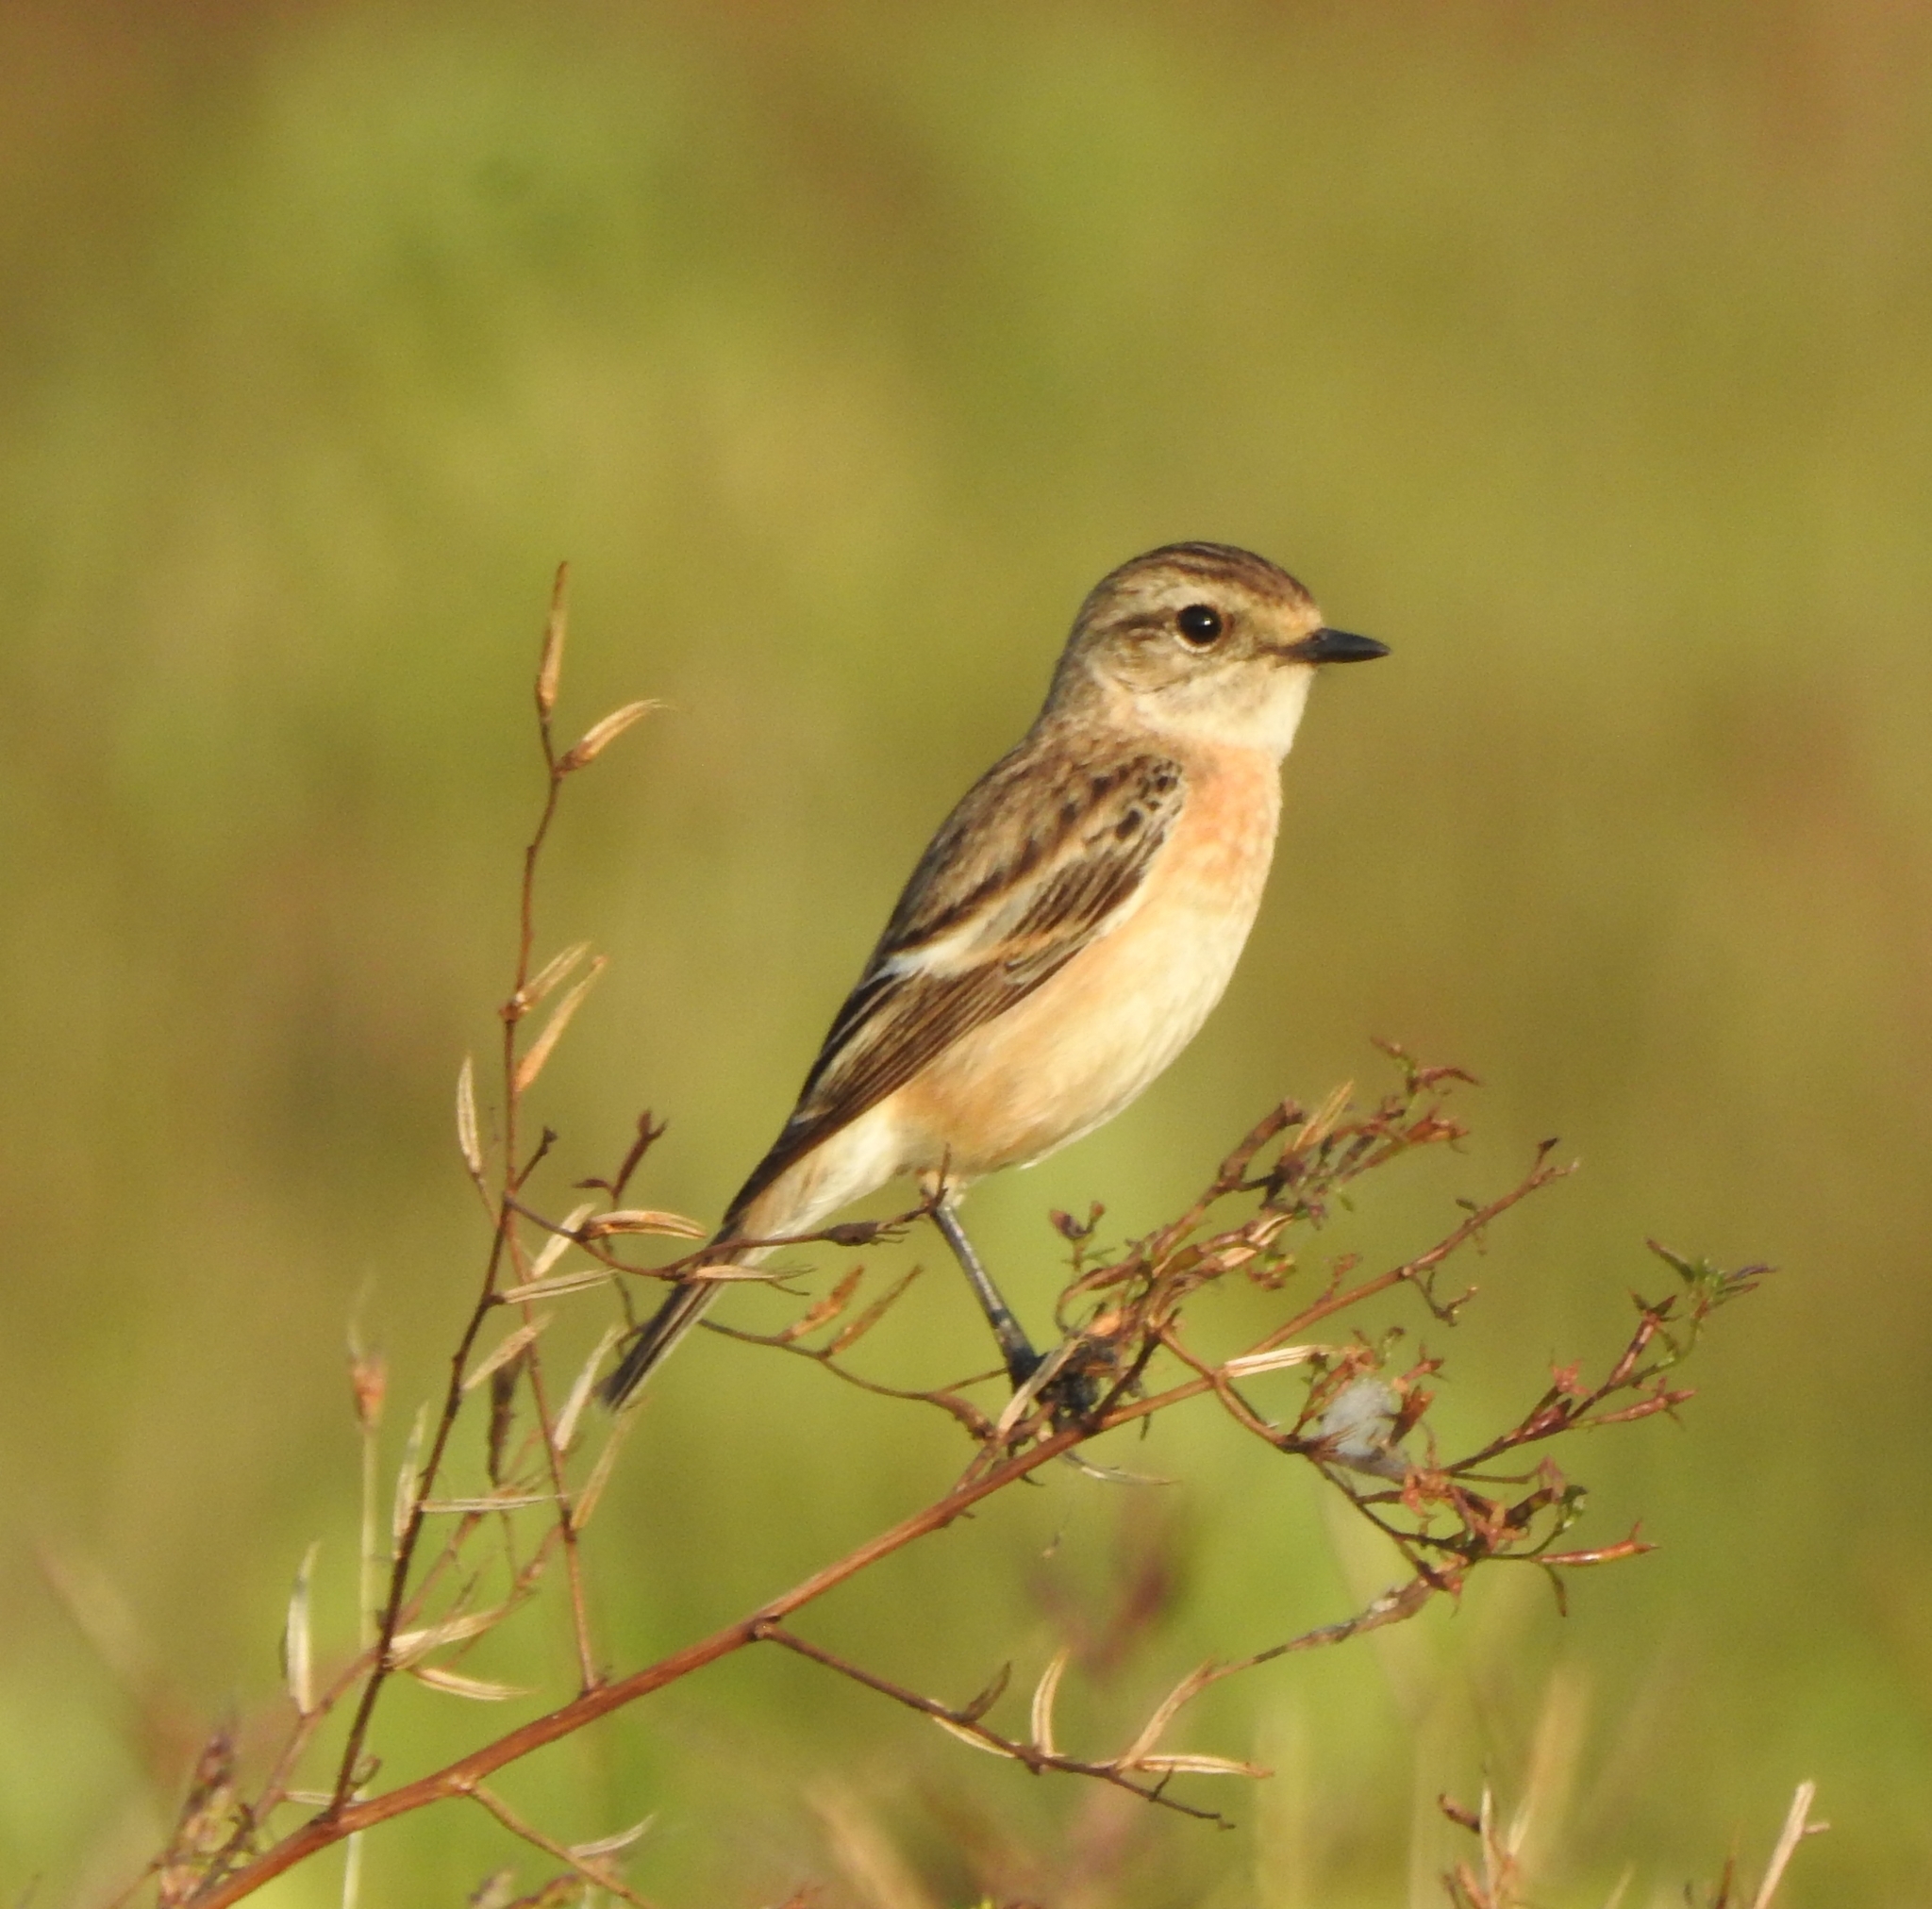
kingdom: Animalia
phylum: Chordata
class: Aves
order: Passeriformes
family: Muscicapidae
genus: Saxicola
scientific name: Saxicola maurus
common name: Siberian stonechat
